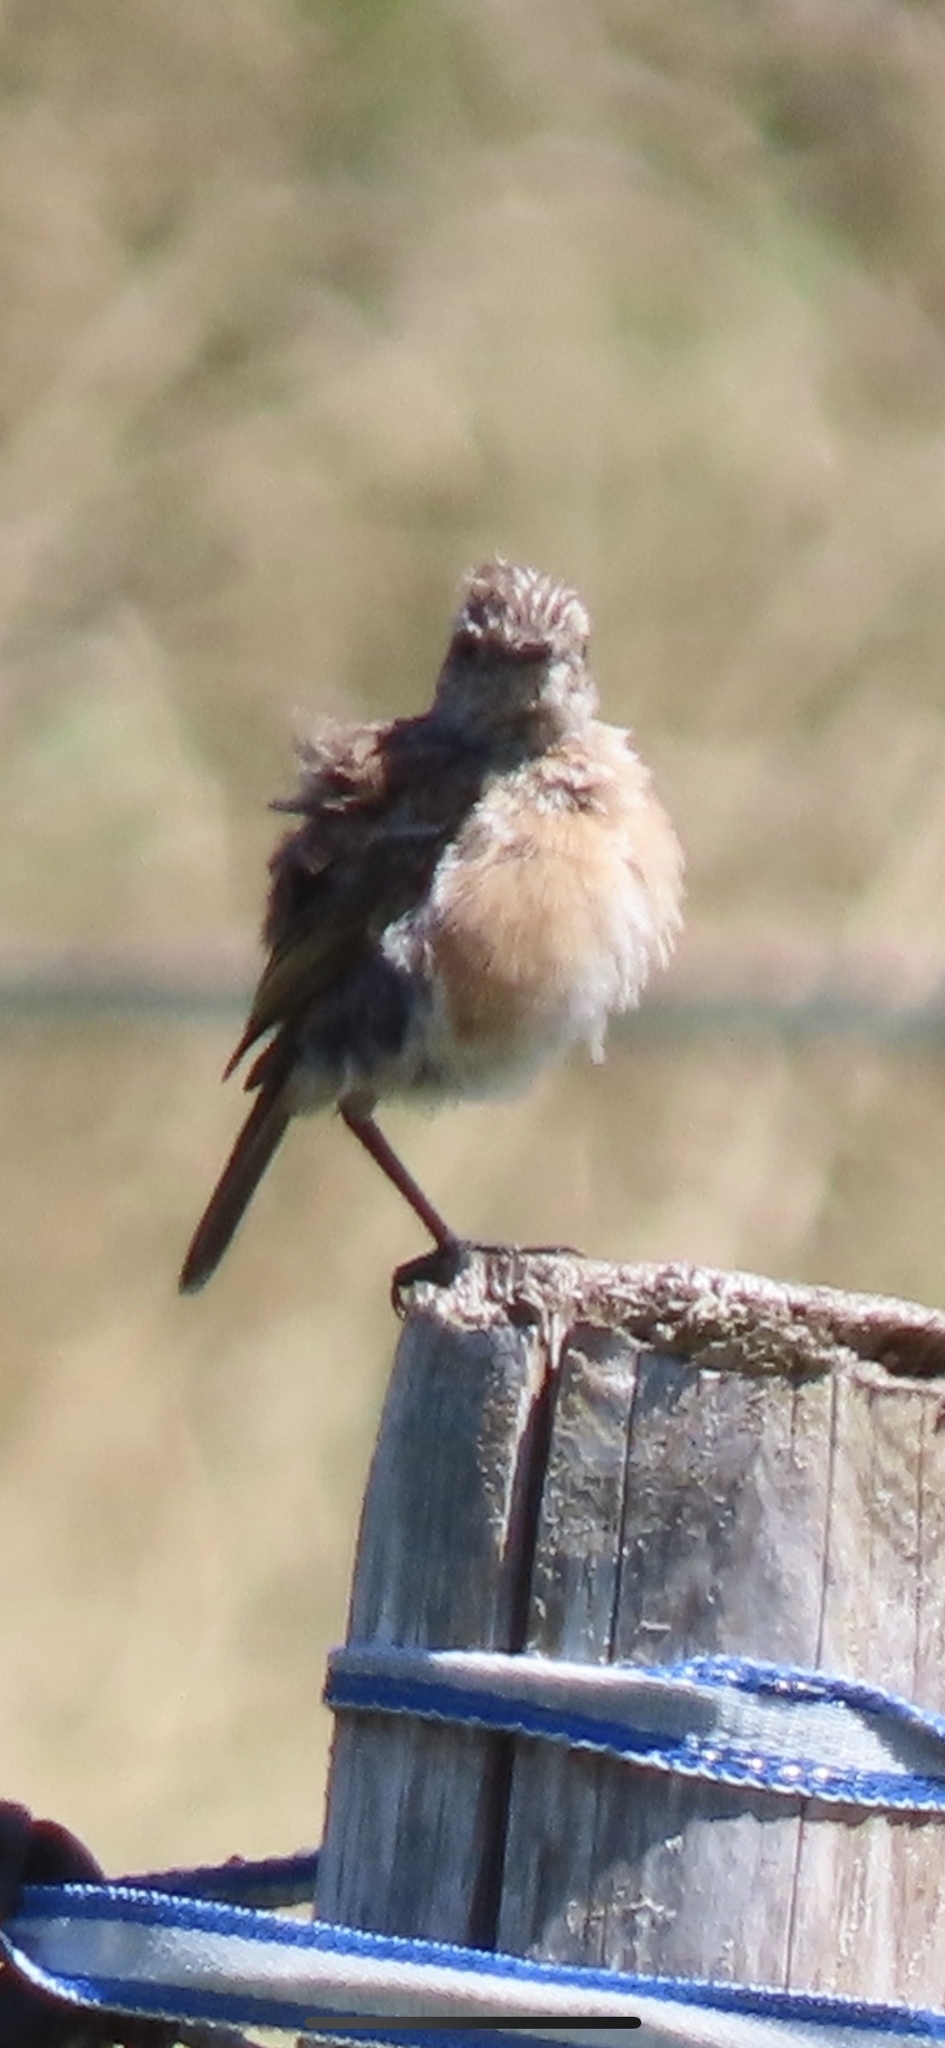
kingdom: Animalia
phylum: Chordata
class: Aves
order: Passeriformes
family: Muscicapidae
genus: Saxicola
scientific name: Saxicola rubicola
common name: European stonechat
